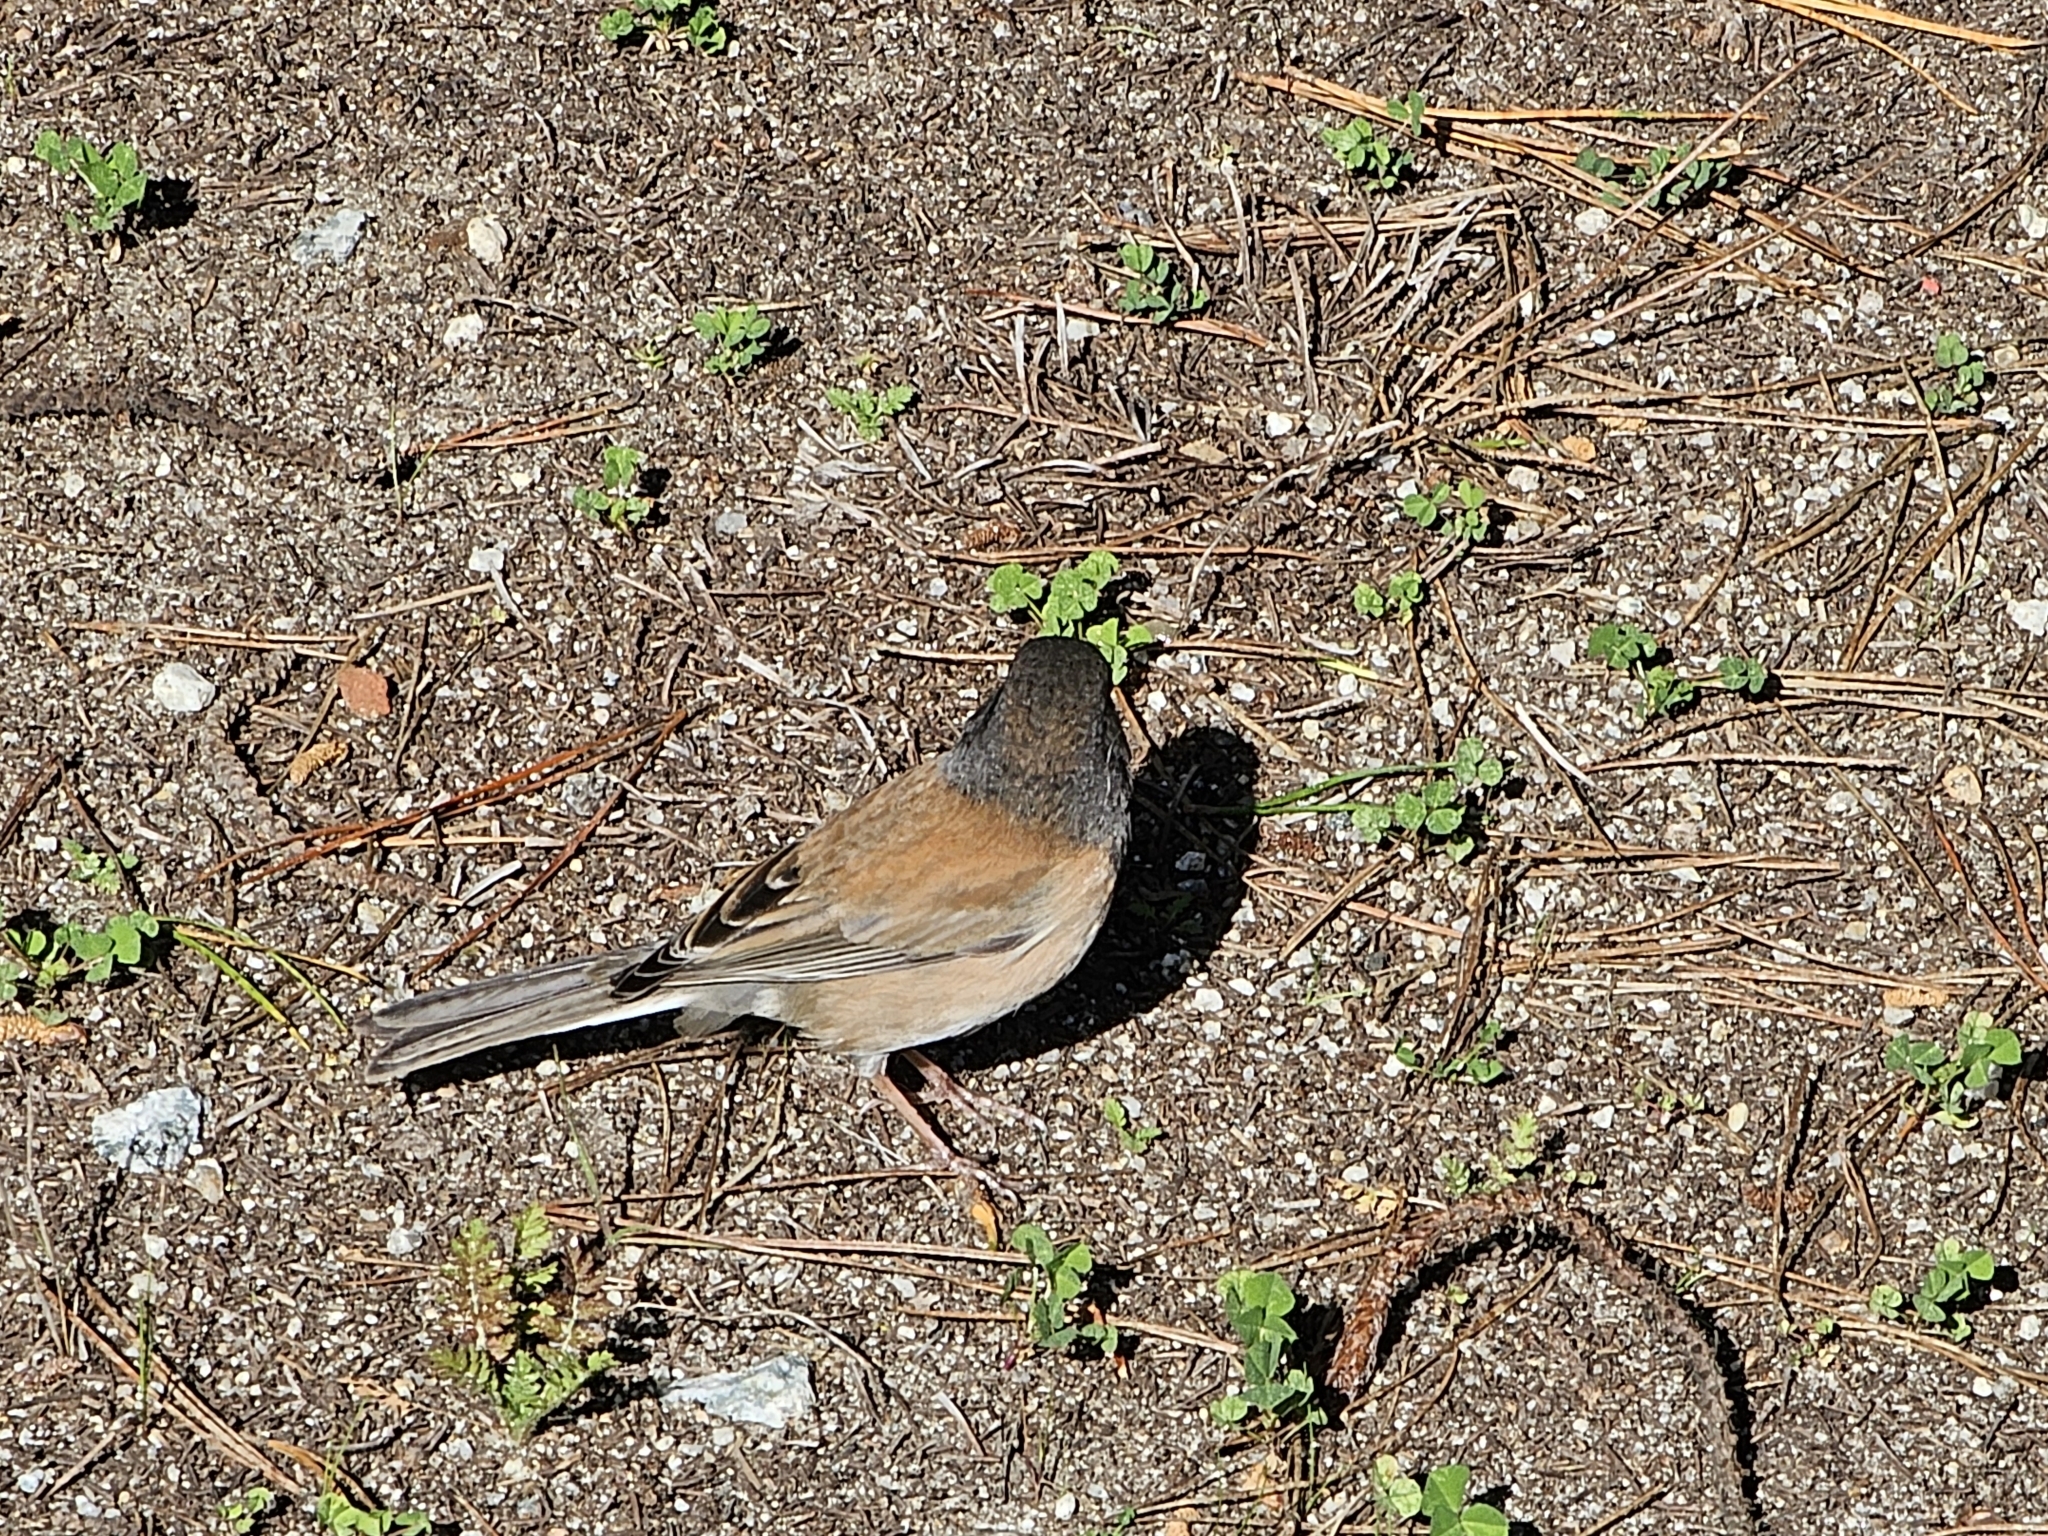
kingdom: Animalia
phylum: Chordata
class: Aves
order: Passeriformes
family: Passerellidae
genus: Junco
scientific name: Junco hyemalis
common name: Dark-eyed junco
